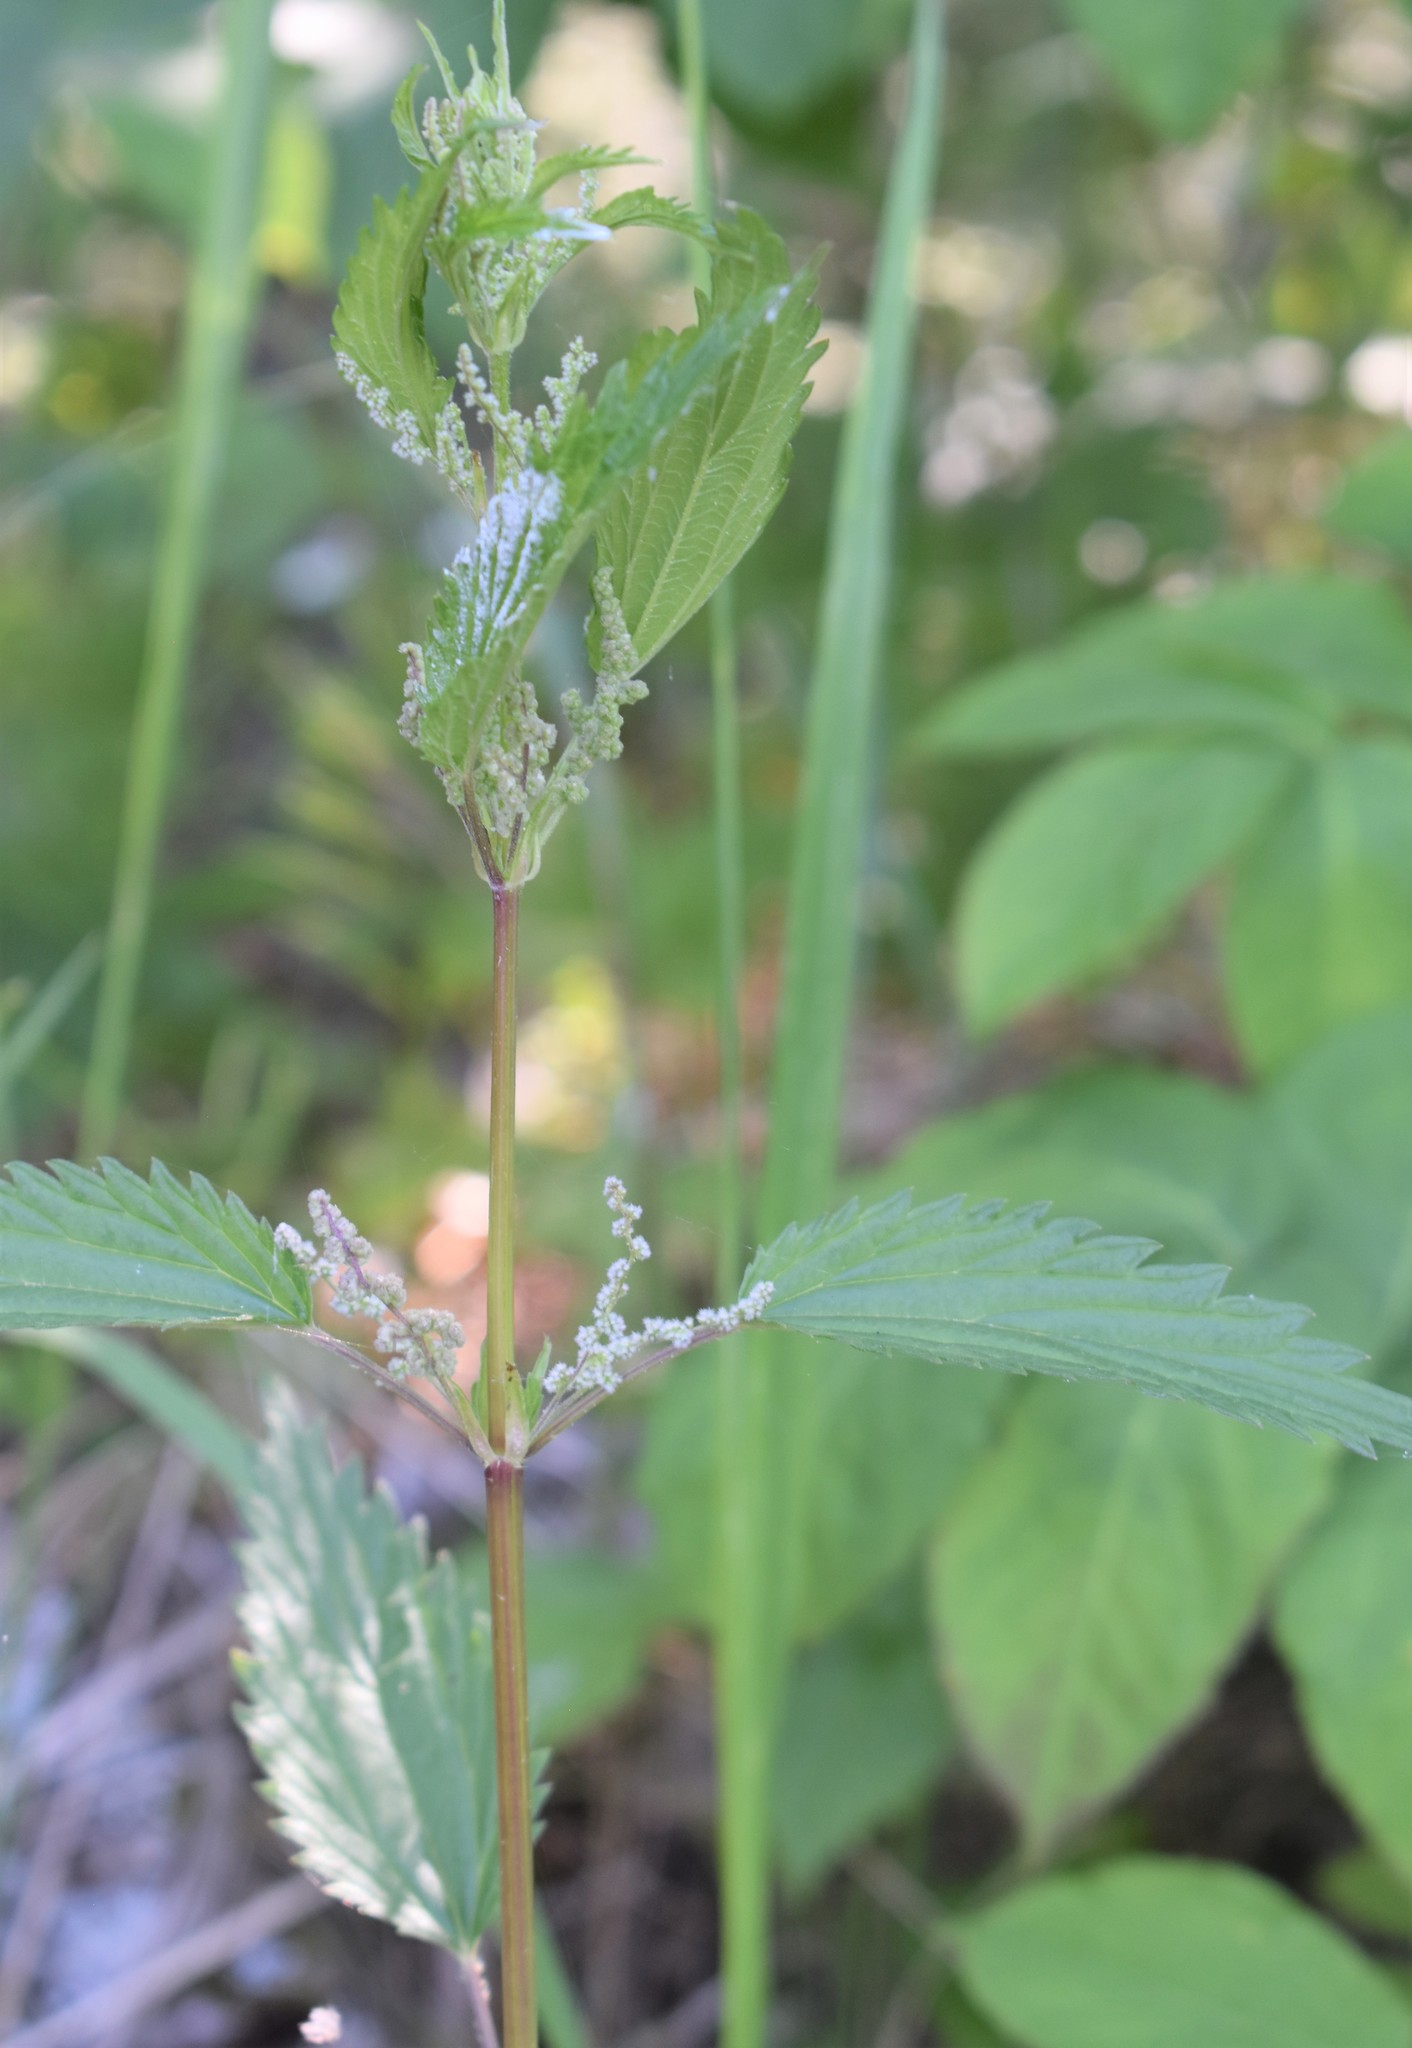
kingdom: Plantae
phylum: Tracheophyta
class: Magnoliopsida
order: Rosales
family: Urticaceae
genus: Urtica
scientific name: Urtica gracilis
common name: Slender stinging nettle
